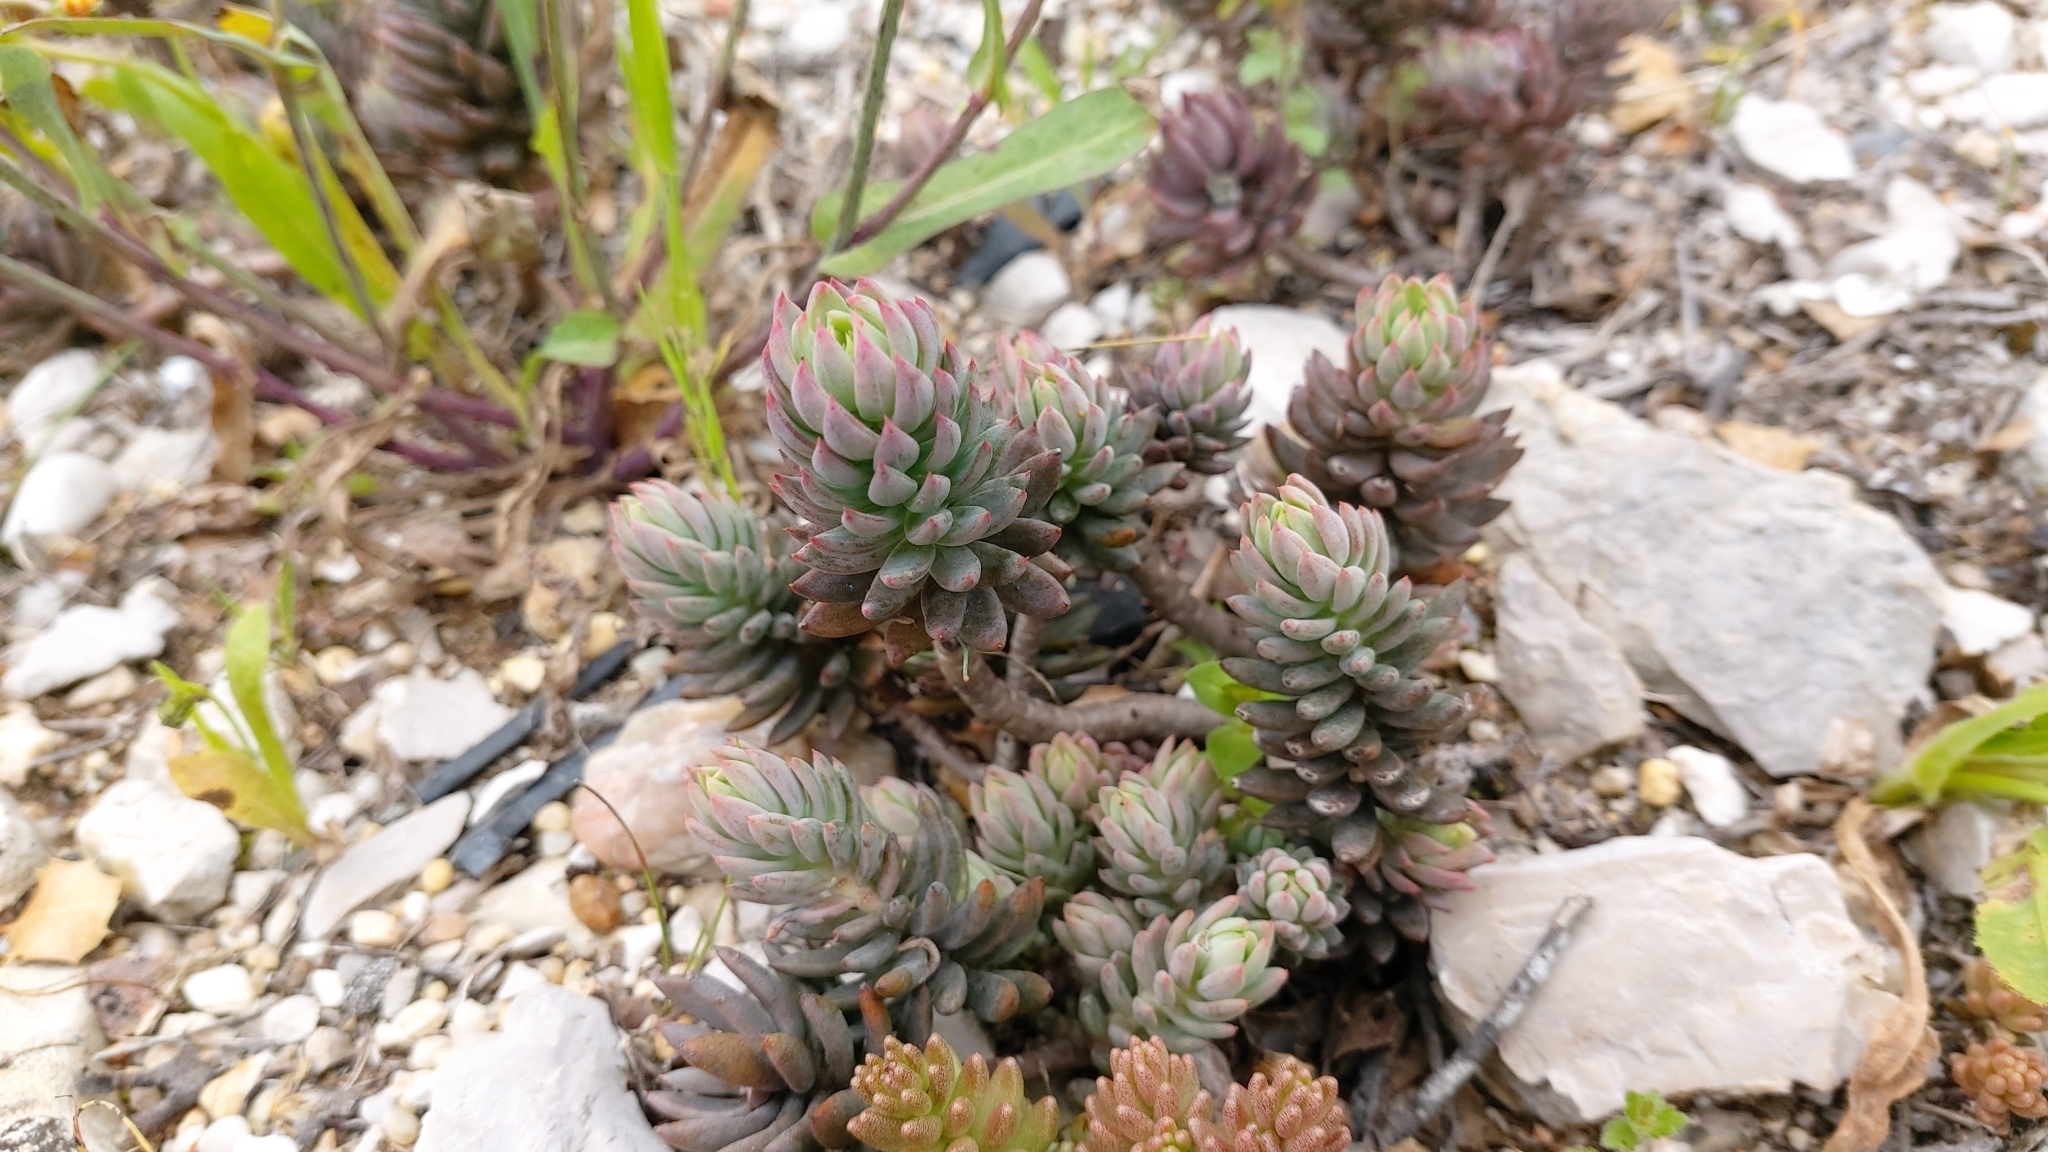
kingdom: Plantae
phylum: Tracheophyta
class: Magnoliopsida
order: Saxifragales
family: Crassulaceae
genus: Petrosedum
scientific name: Petrosedum sediforme
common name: Pale stonecrop
